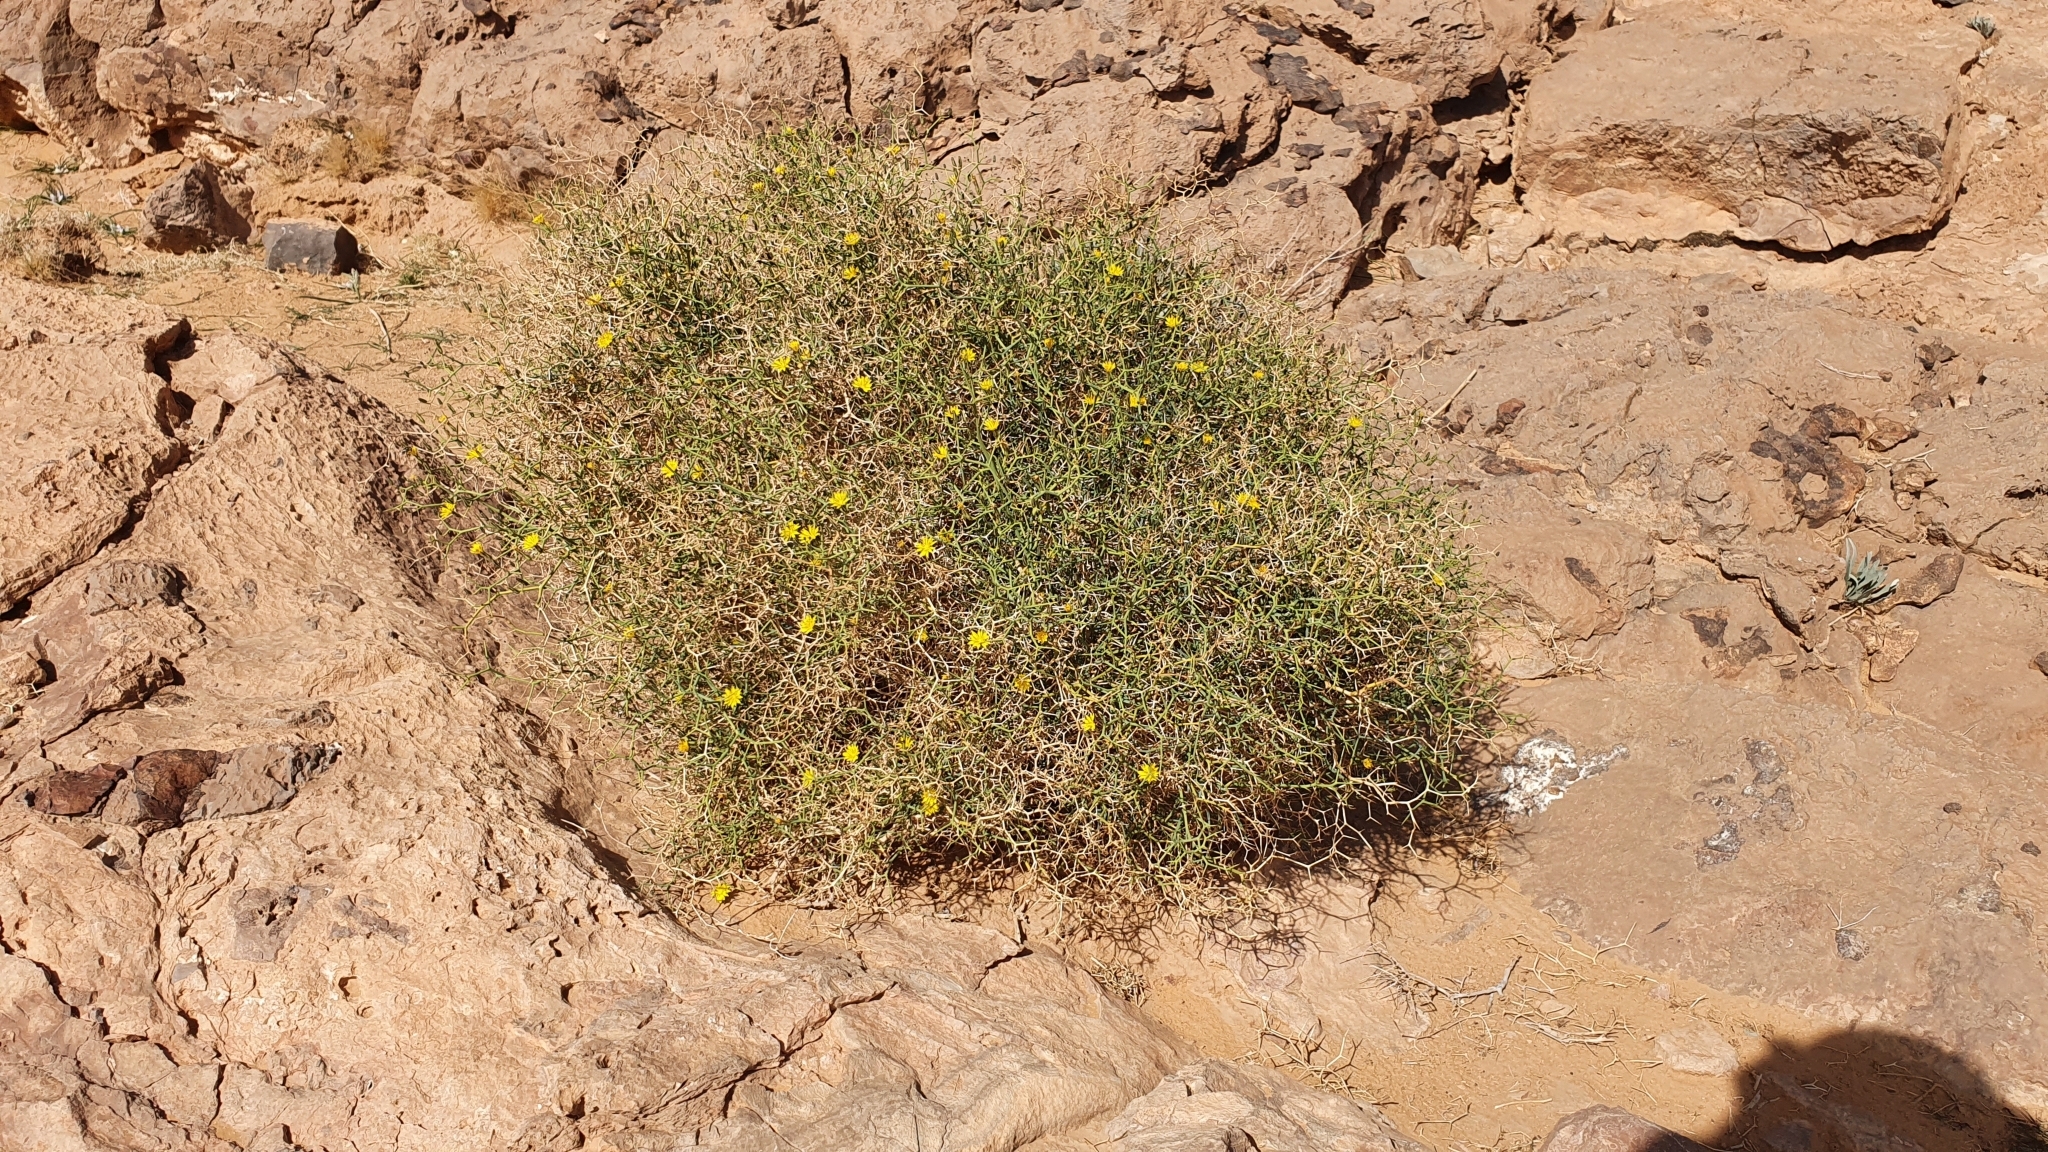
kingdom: Plantae
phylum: Tracheophyta
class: Magnoliopsida
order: Asterales
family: Asteraceae
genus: Launaea
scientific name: Launaea arborescens
